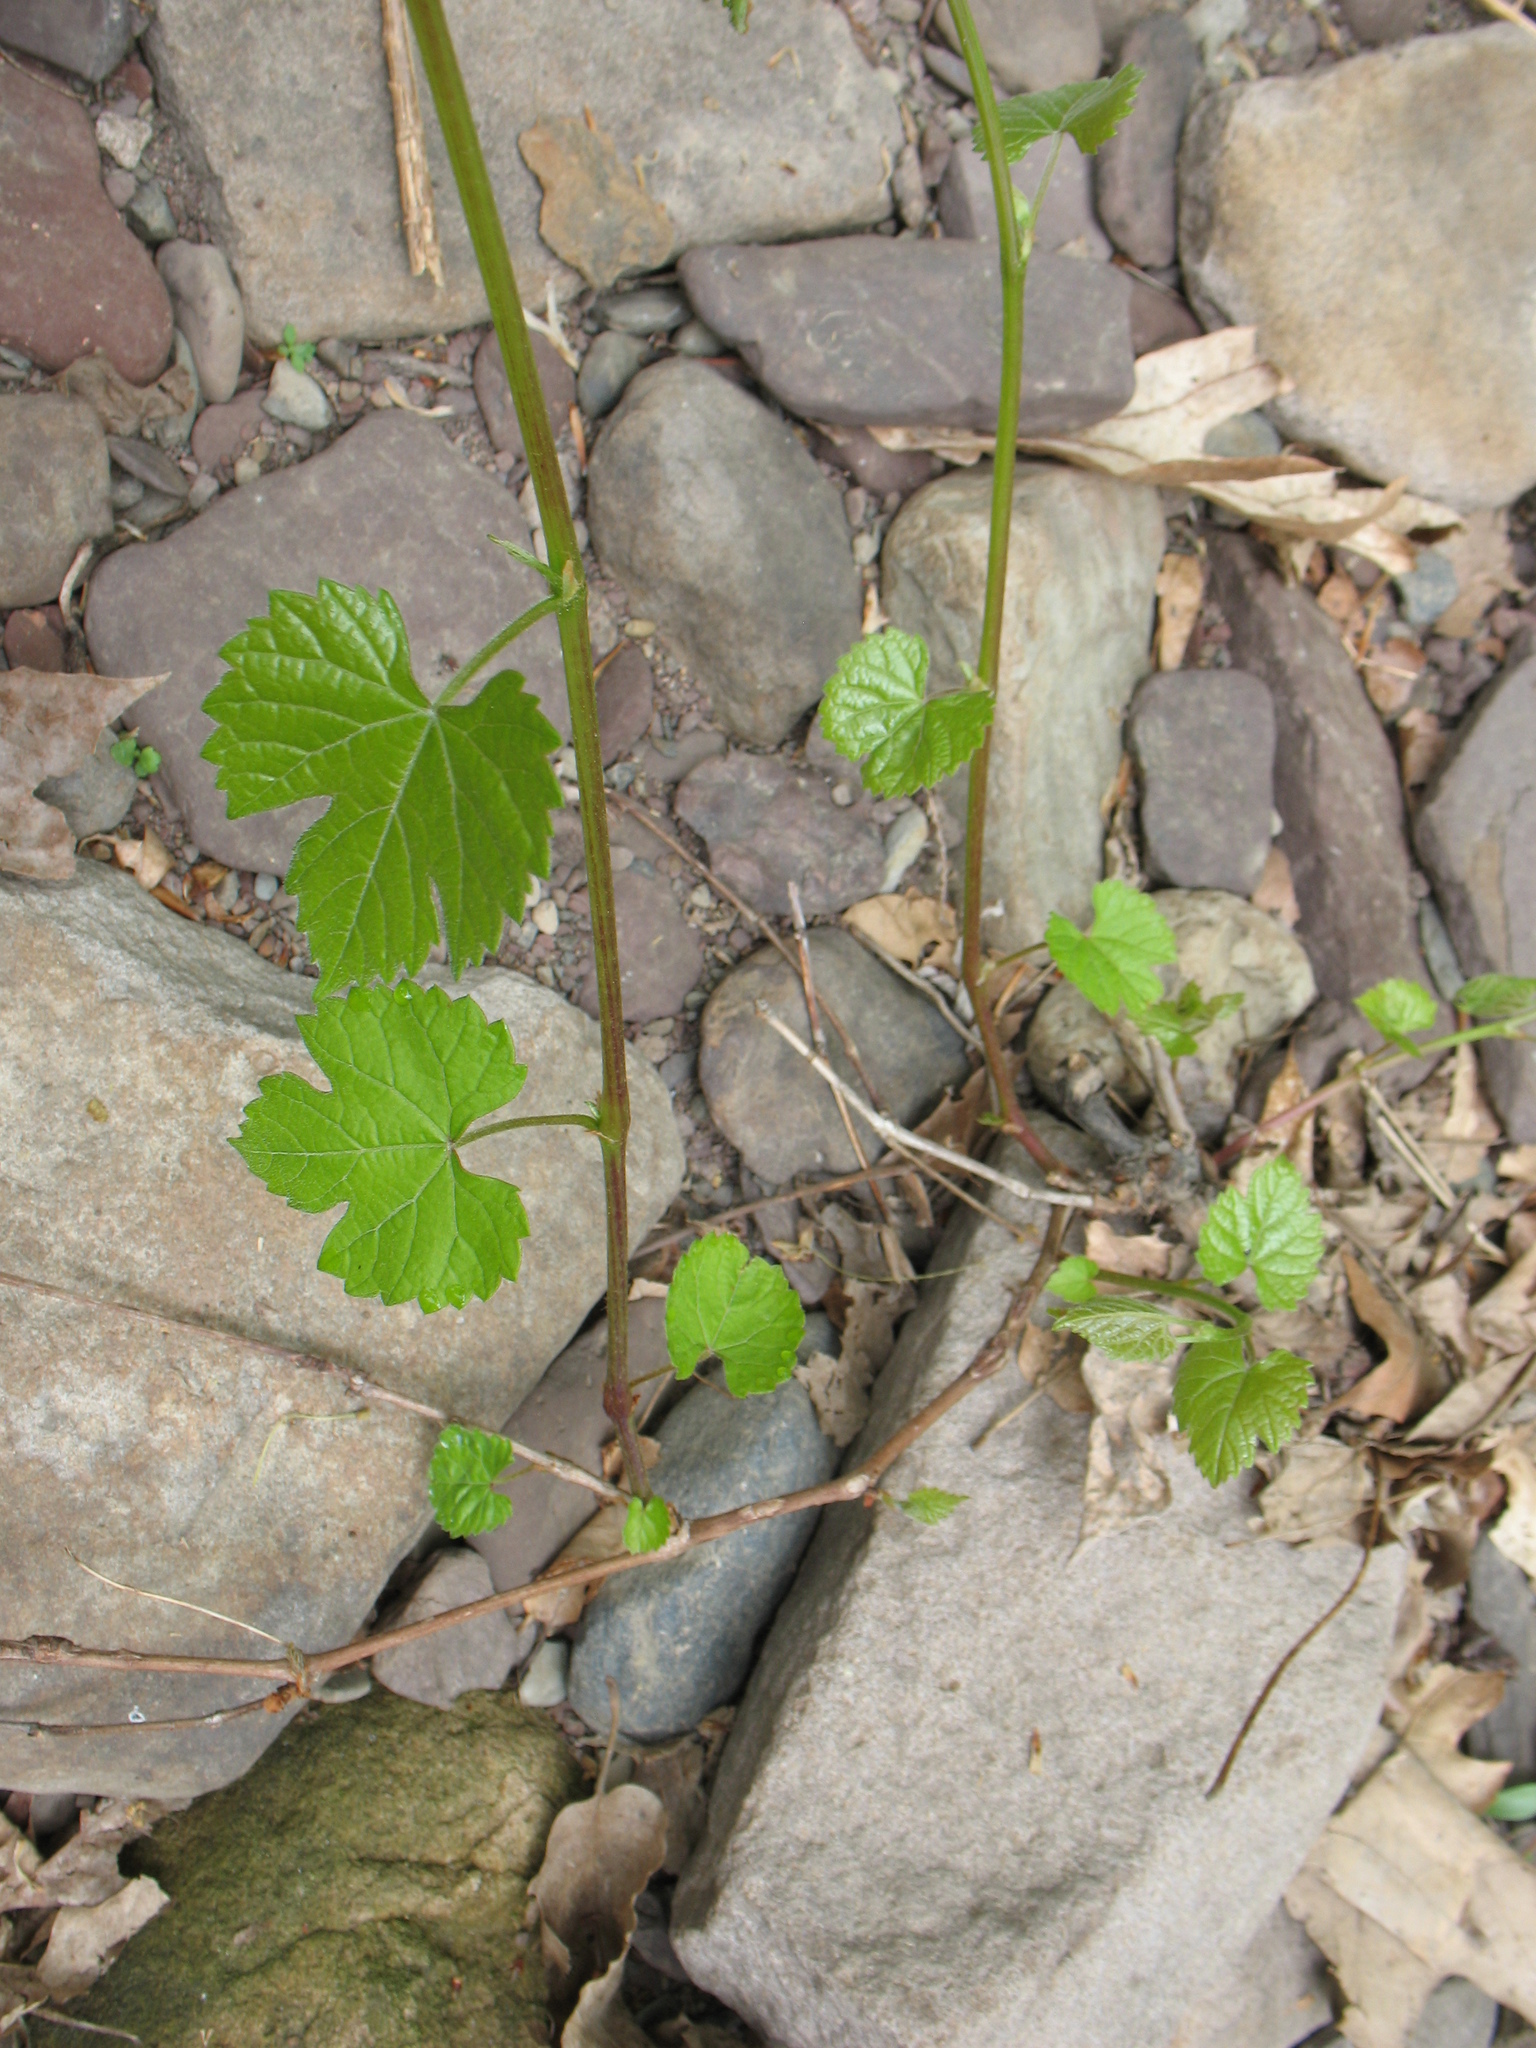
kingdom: Plantae
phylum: Tracheophyta
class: Magnoliopsida
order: Vitales
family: Vitaceae
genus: Vitis
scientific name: Vitis riparia
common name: Frost grape
